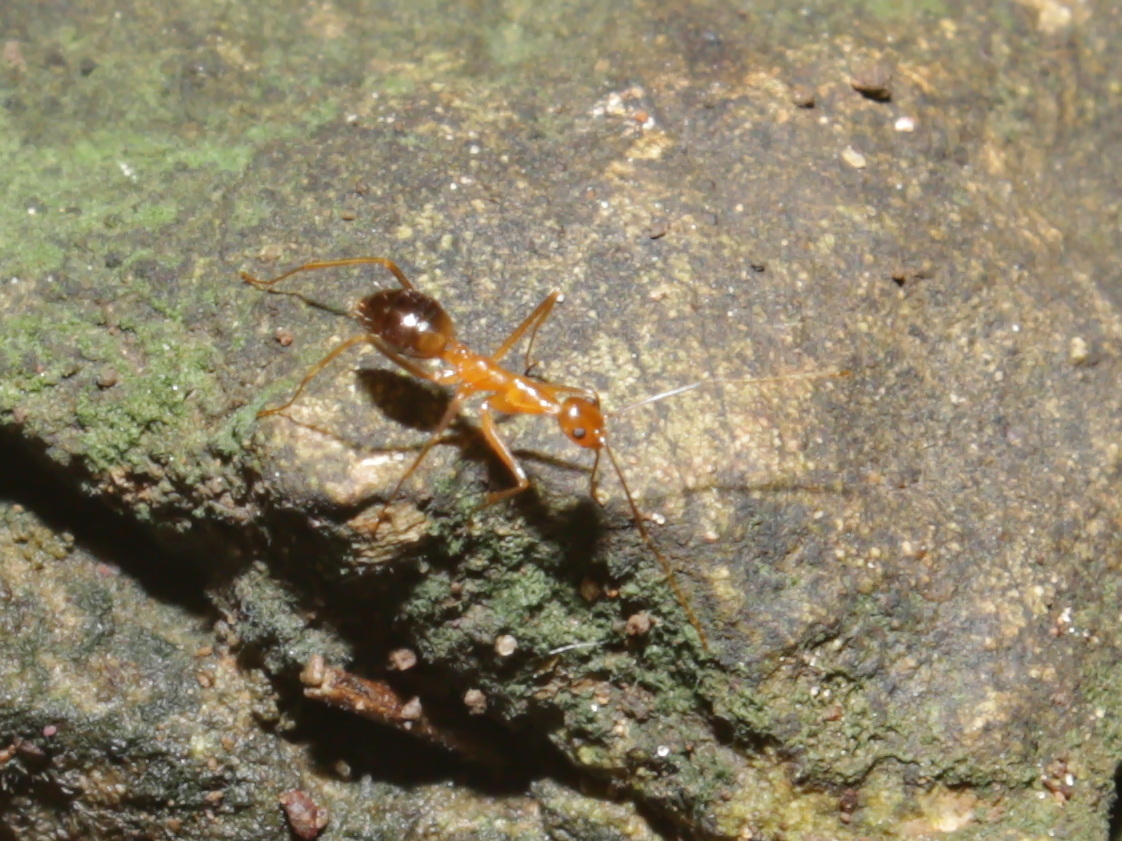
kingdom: Animalia
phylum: Arthropoda
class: Insecta
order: Hymenoptera
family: Formicidae
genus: Anoplolepis
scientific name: Anoplolepis gracilipes
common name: Ant
